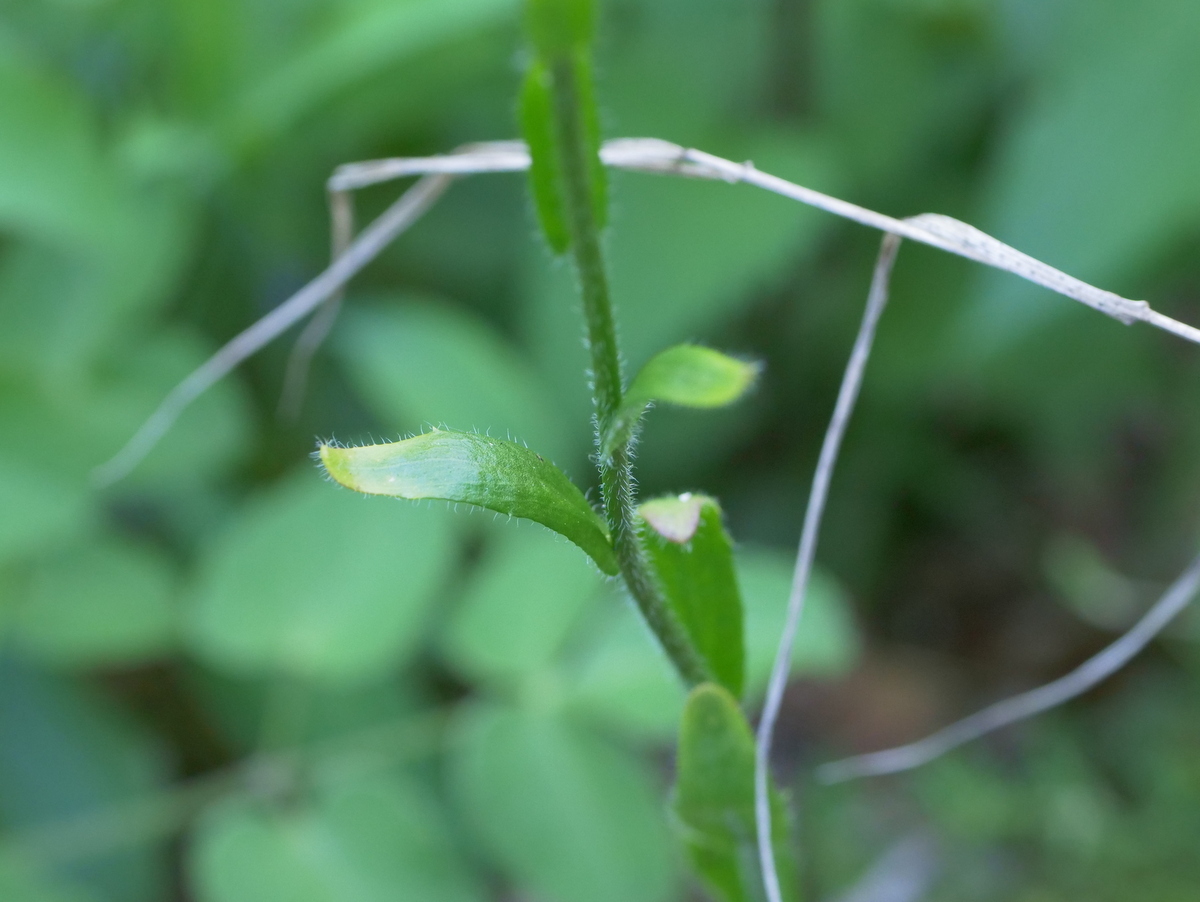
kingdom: Plantae
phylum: Tracheophyta
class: Magnoliopsida
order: Brassicales
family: Brassicaceae
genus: Arabis
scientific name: Arabis hirsuta
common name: Hairy rock-cress
